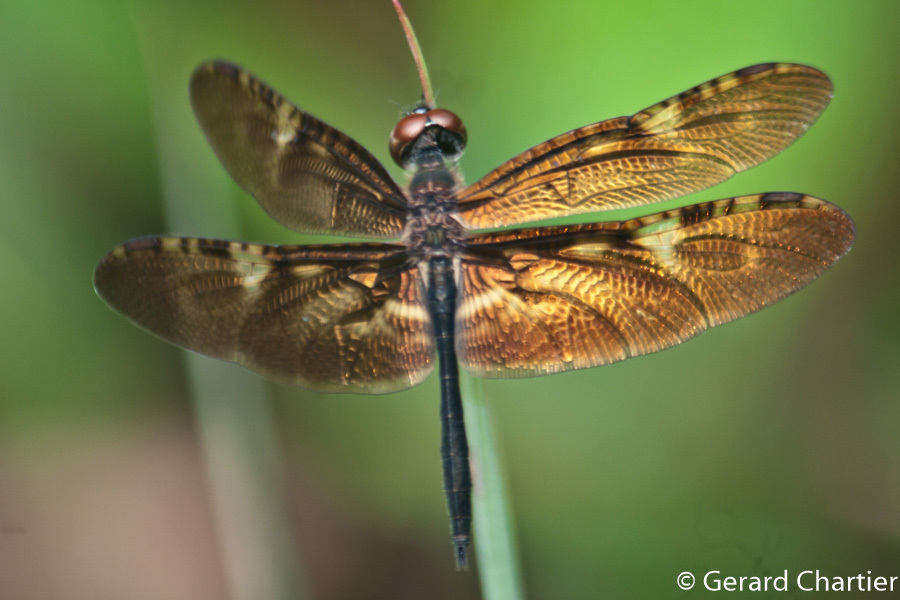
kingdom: Animalia
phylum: Arthropoda
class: Insecta
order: Odonata
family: Libellulidae
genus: Rhyothemis
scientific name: Rhyothemis obsolescens
